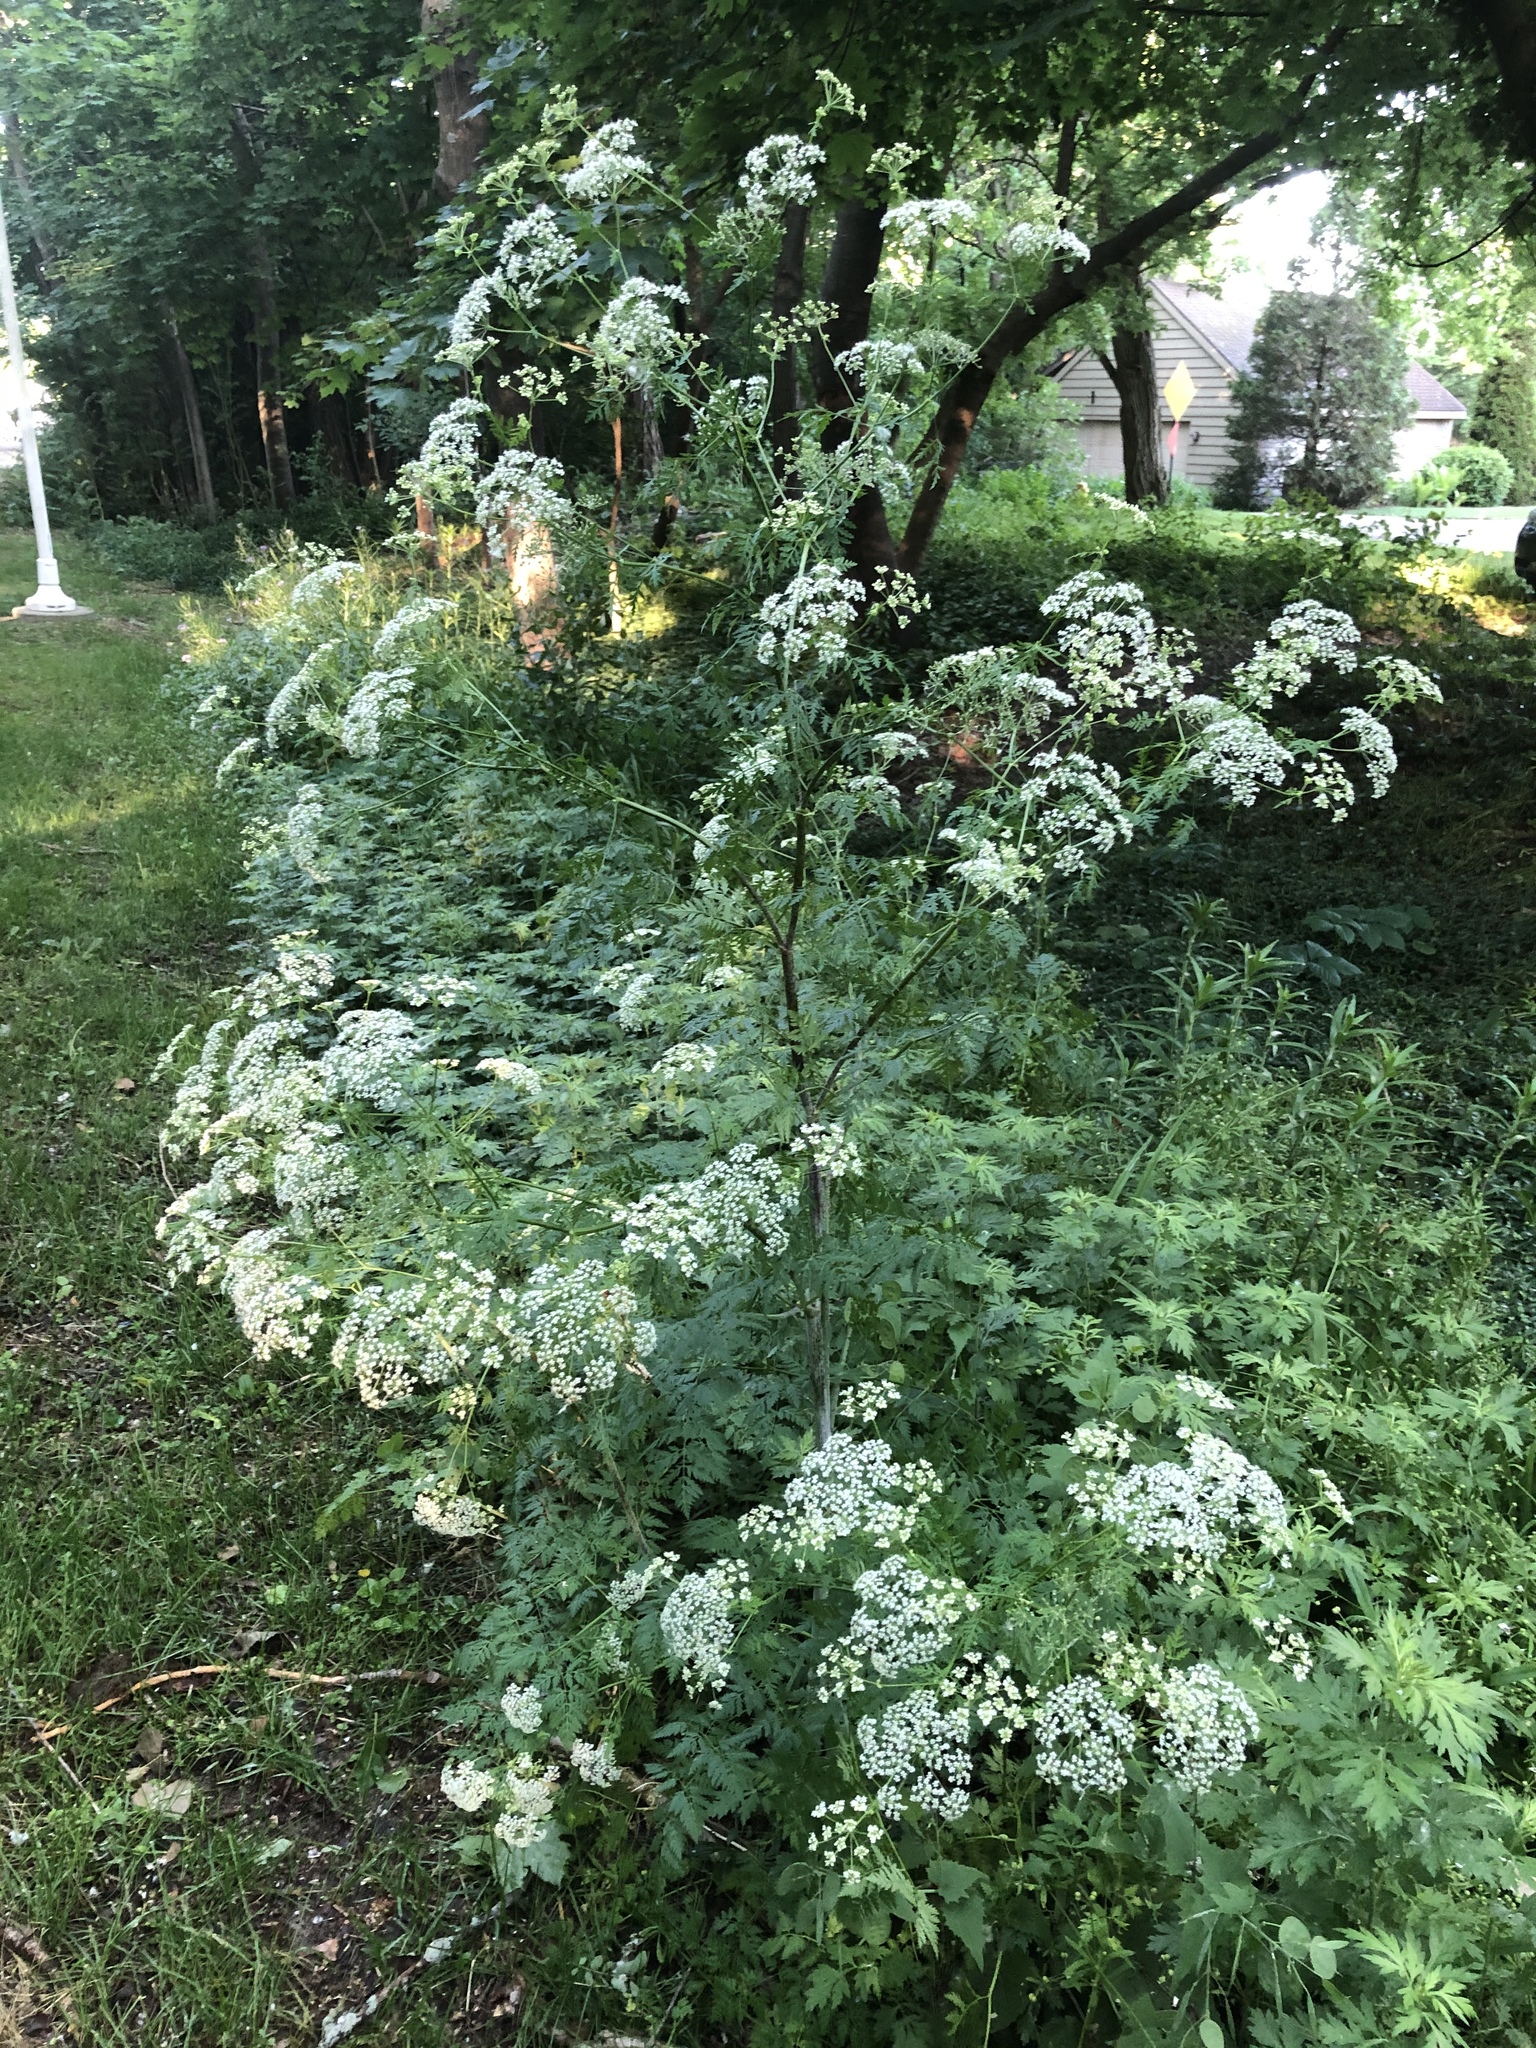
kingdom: Plantae
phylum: Tracheophyta
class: Magnoliopsida
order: Apiales
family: Apiaceae
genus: Conium
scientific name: Conium maculatum
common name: Hemlock
